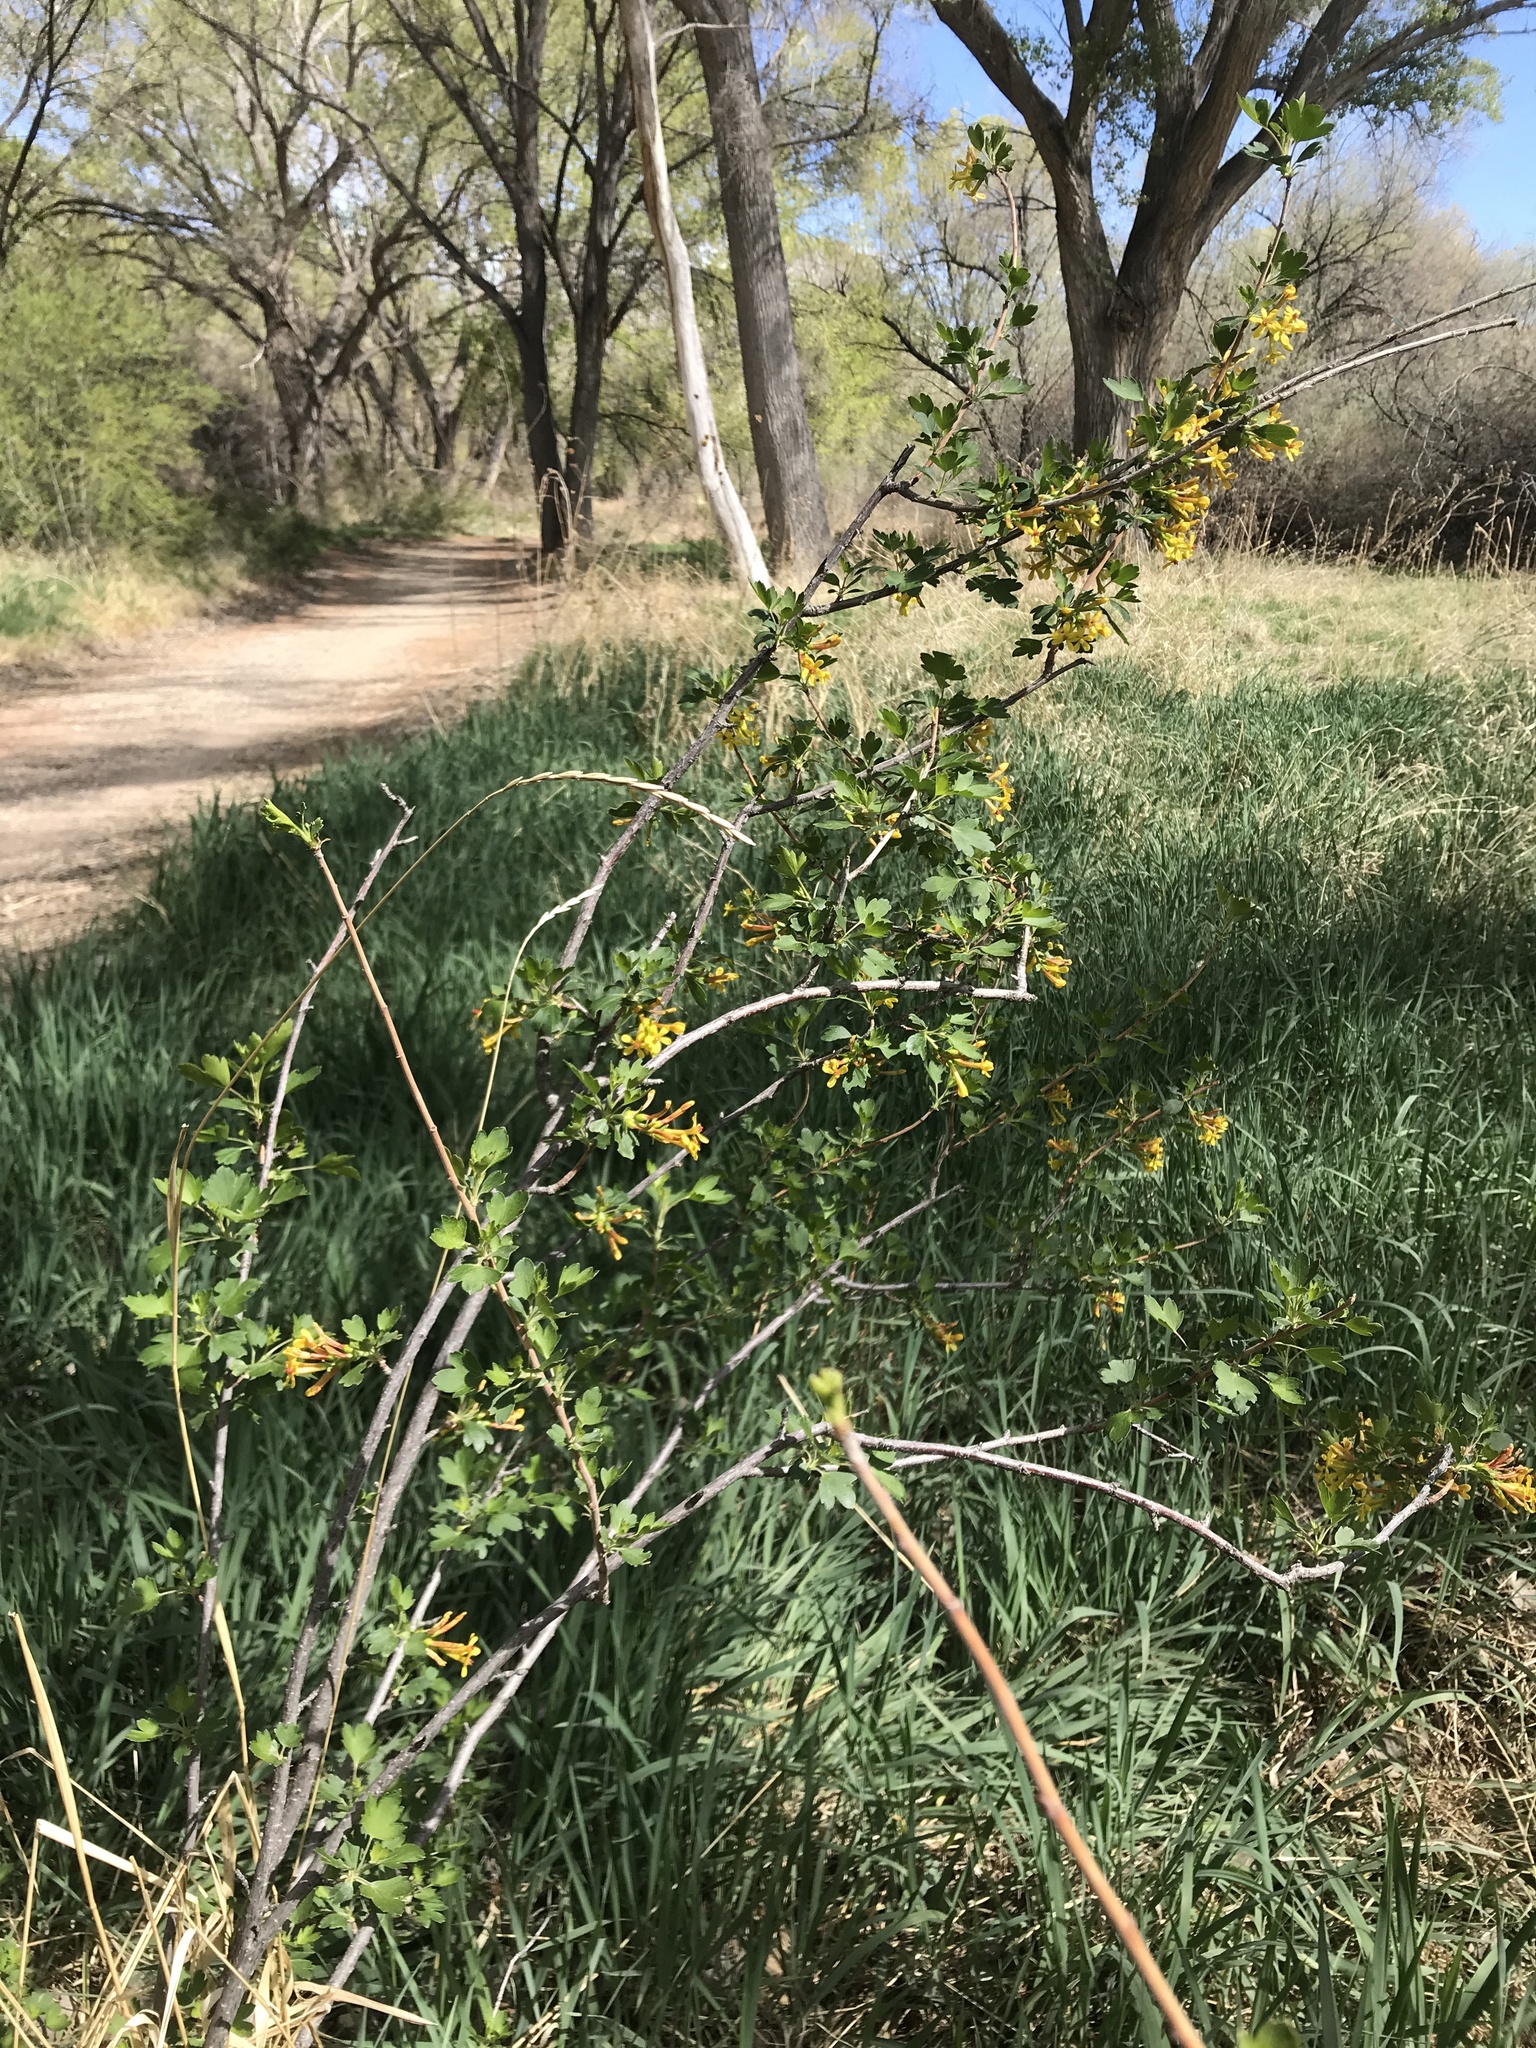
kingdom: Plantae
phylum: Tracheophyta
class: Magnoliopsida
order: Saxifragales
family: Grossulariaceae
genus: Ribes
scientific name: Ribes aureum
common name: Golden currant
